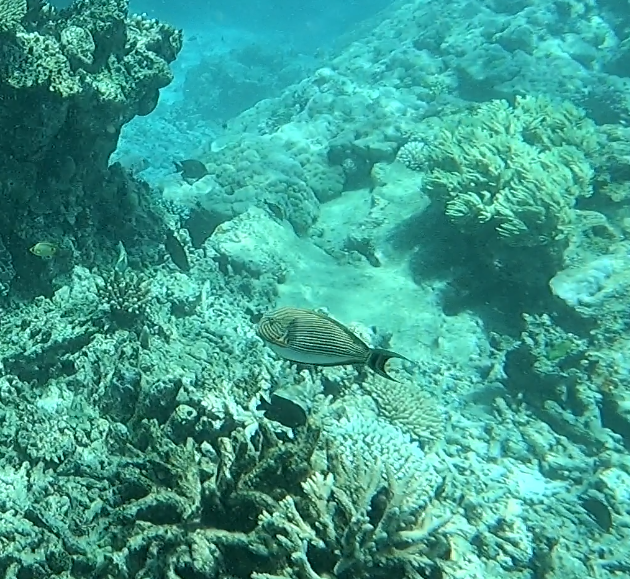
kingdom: Animalia
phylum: Chordata
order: Perciformes
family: Acanthuridae
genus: Acanthurus
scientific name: Acanthurus lineatus
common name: Striped surgeonfish
